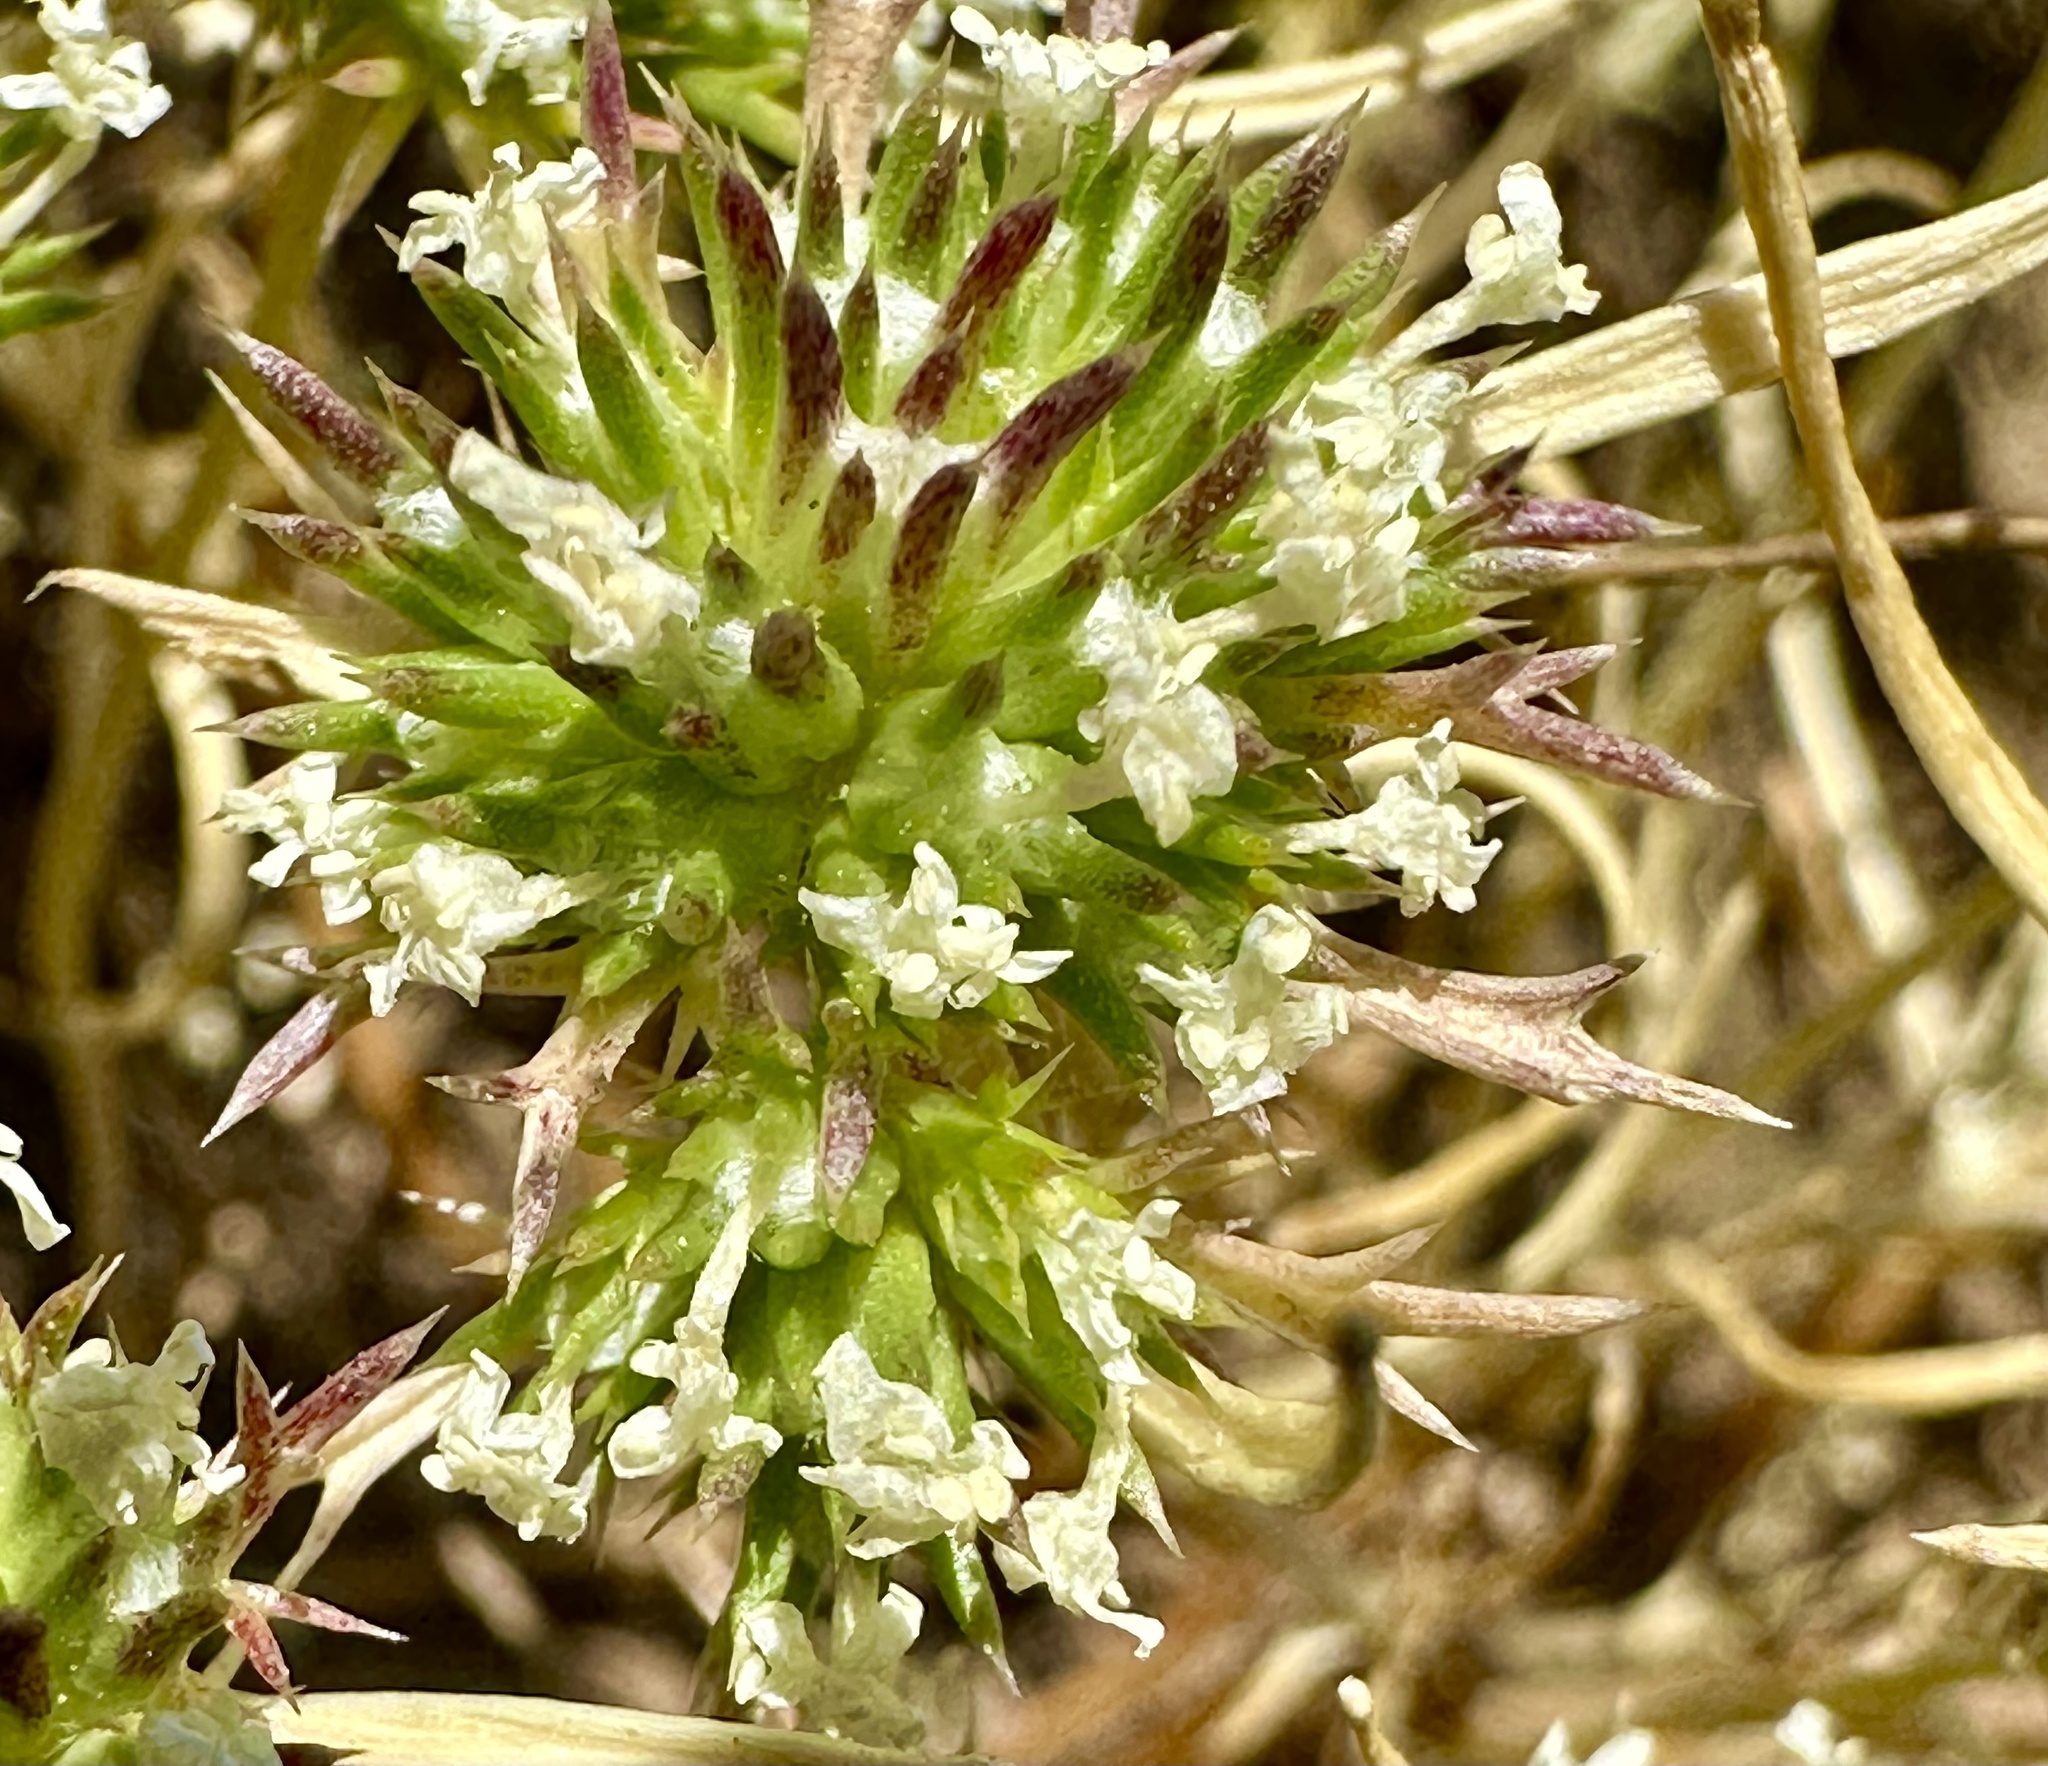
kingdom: Plantae
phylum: Tracheophyta
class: Magnoliopsida
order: Ericales
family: Polemoniaceae
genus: Navarretia
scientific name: Navarretia leucocephala
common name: White-flowered navarretia
